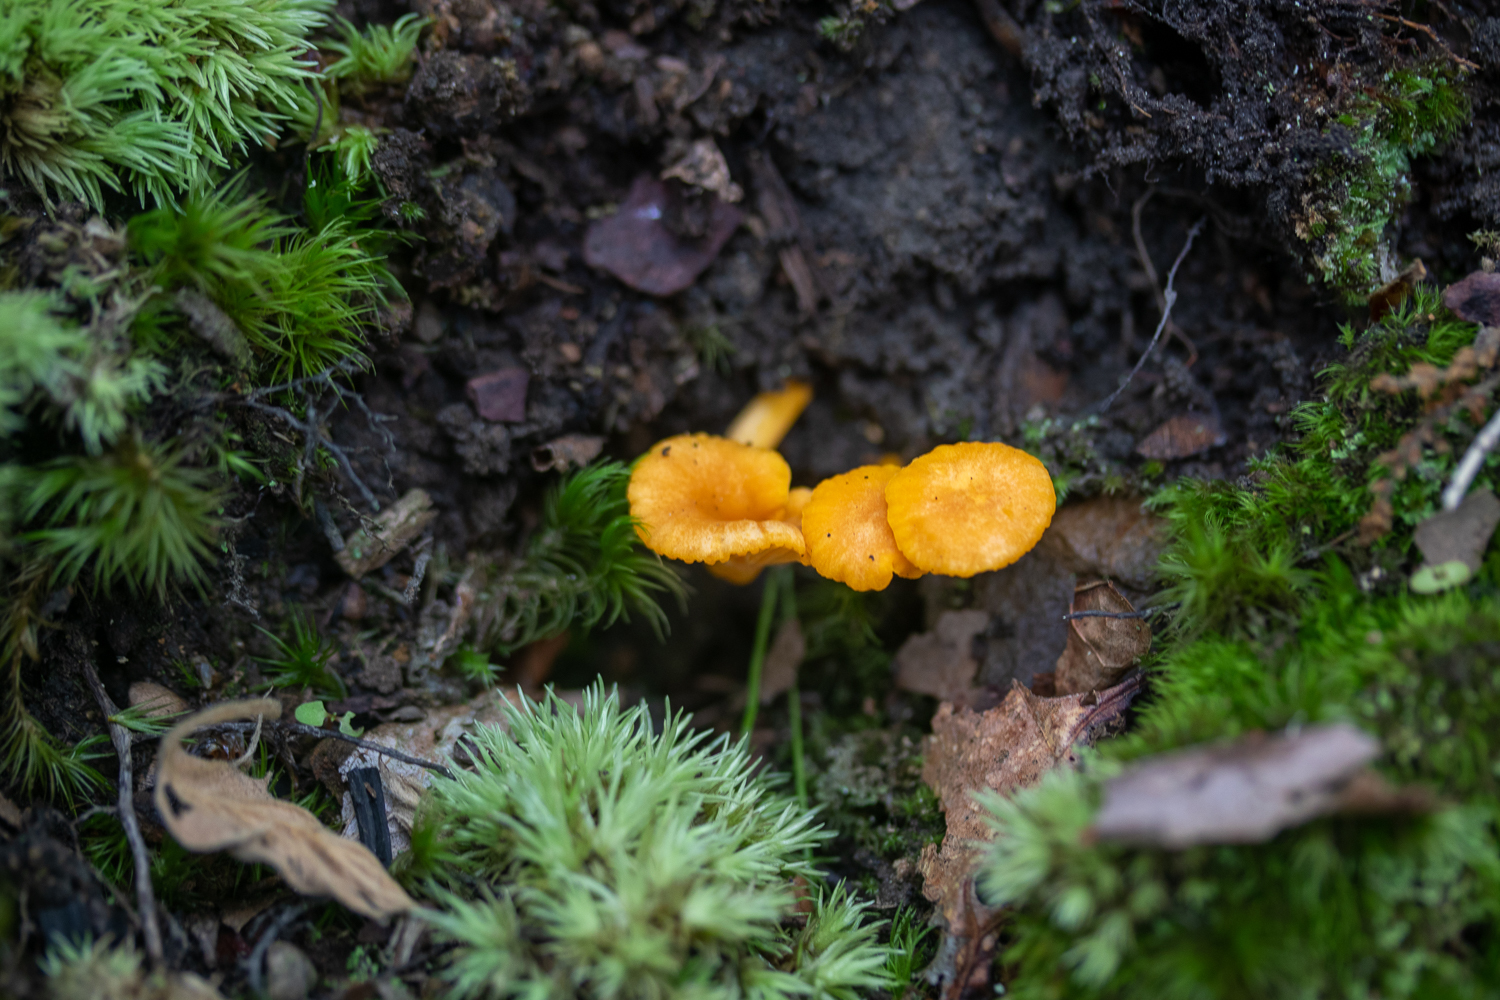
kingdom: Fungi
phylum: Basidiomycota
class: Agaricomycetes
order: Cantharellales
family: Hydnaceae
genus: Cantharellus
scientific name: Cantharellus minor
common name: Small chanterelle
